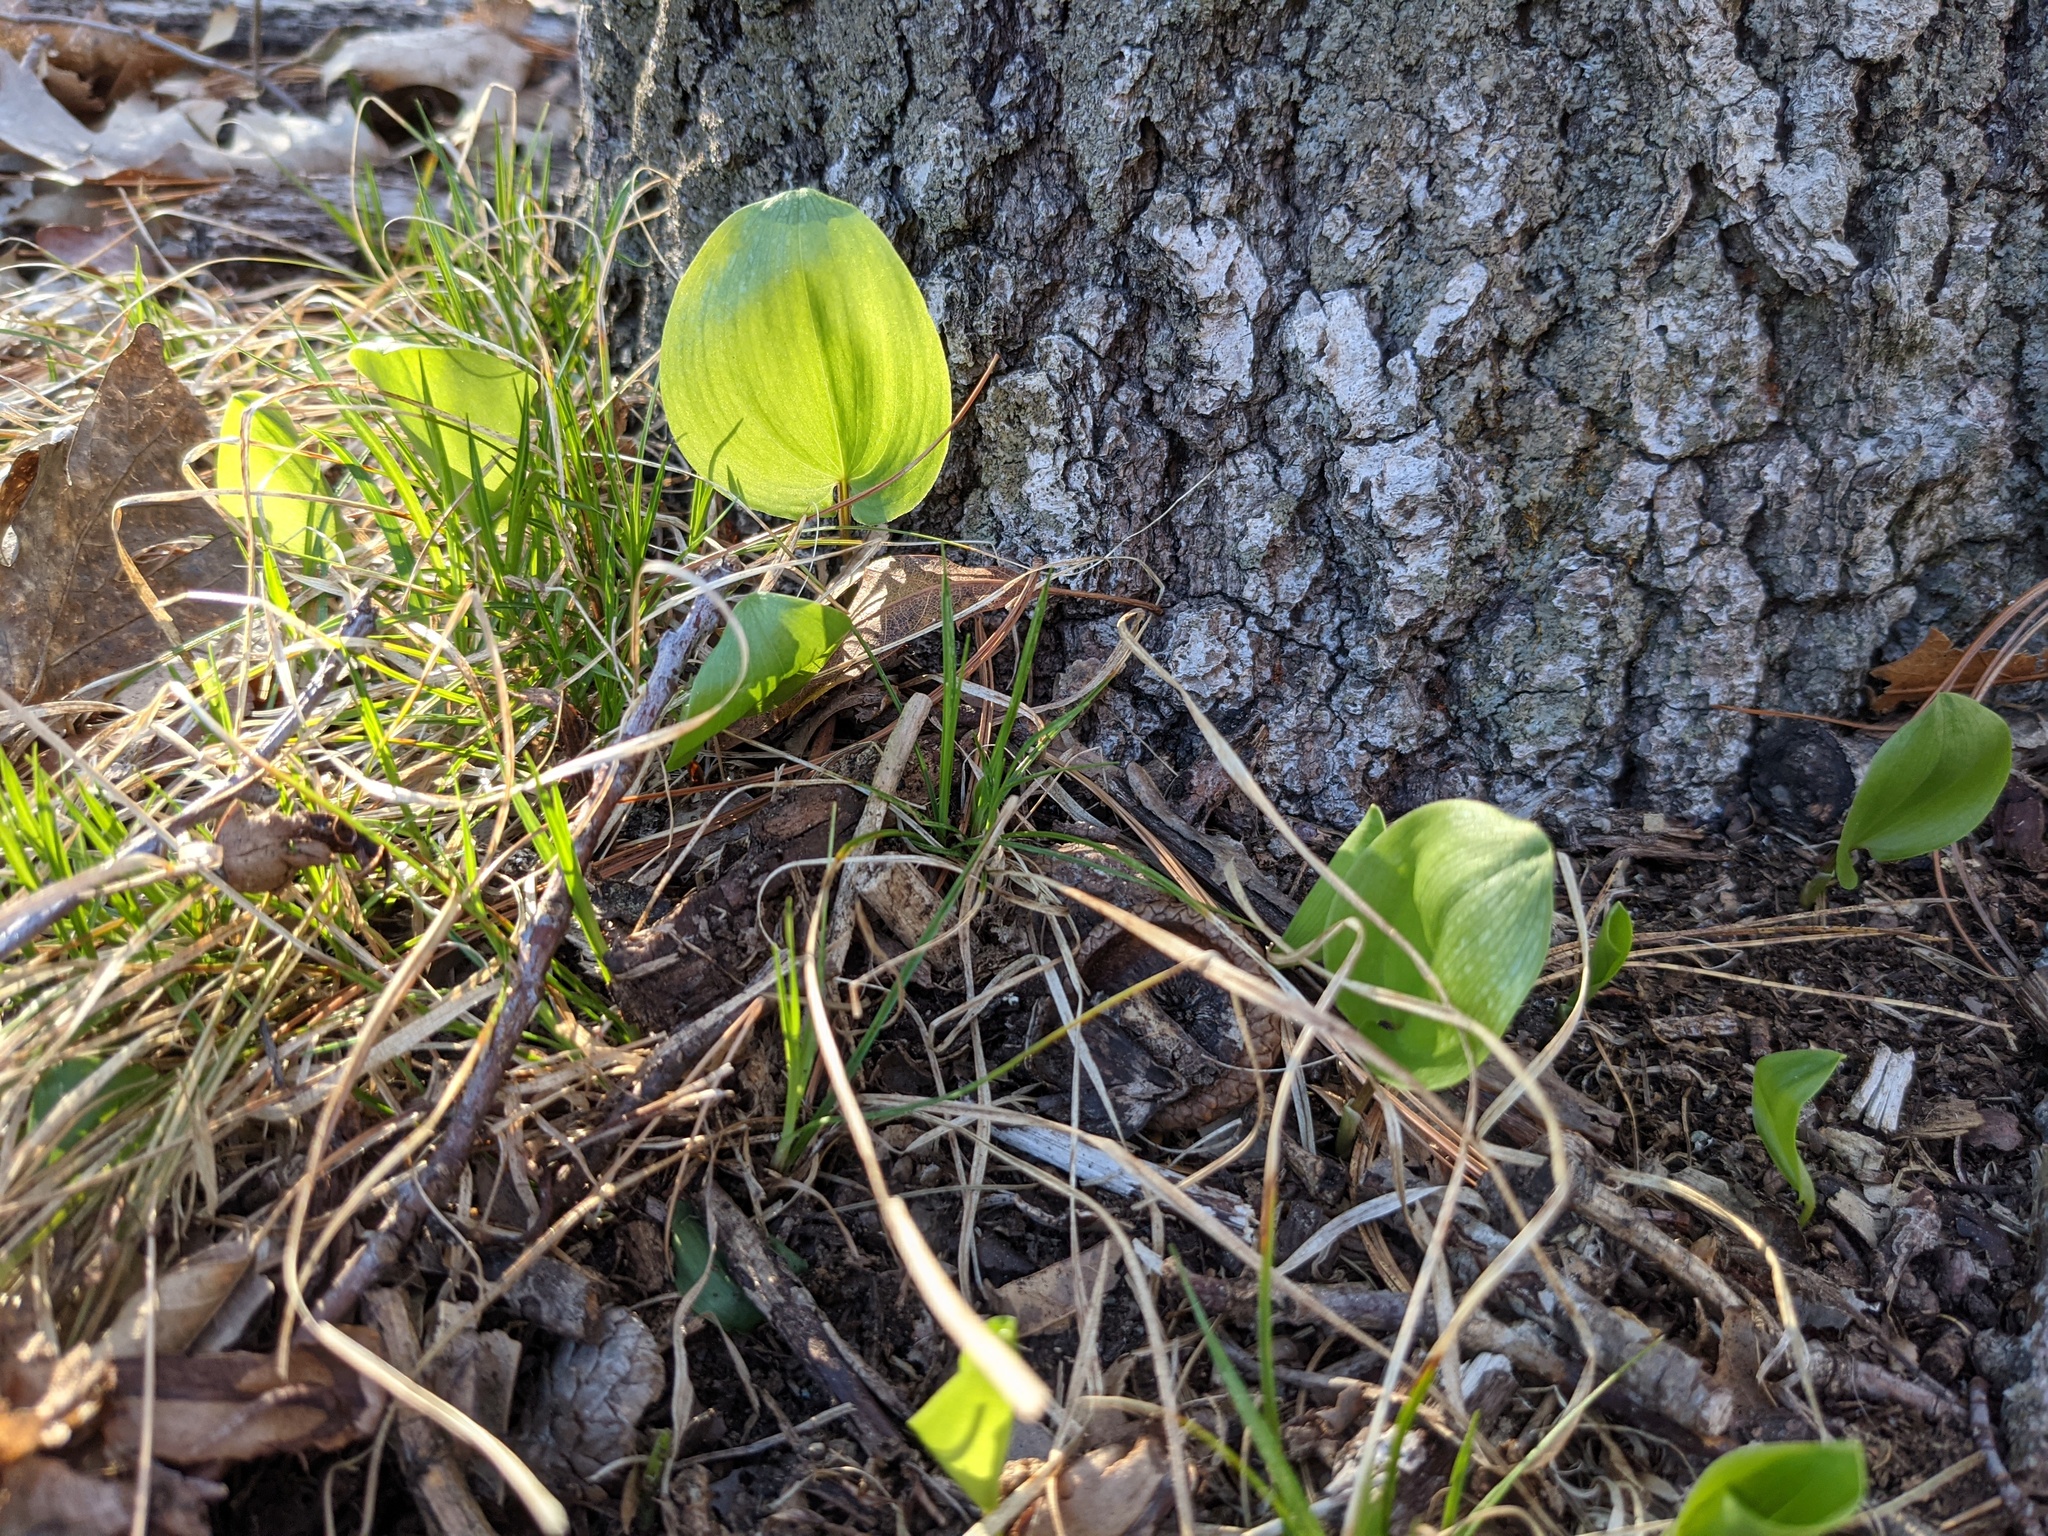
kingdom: Plantae
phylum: Tracheophyta
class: Liliopsida
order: Asparagales
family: Asparagaceae
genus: Maianthemum
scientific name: Maianthemum canadense
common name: False lily-of-the-valley
